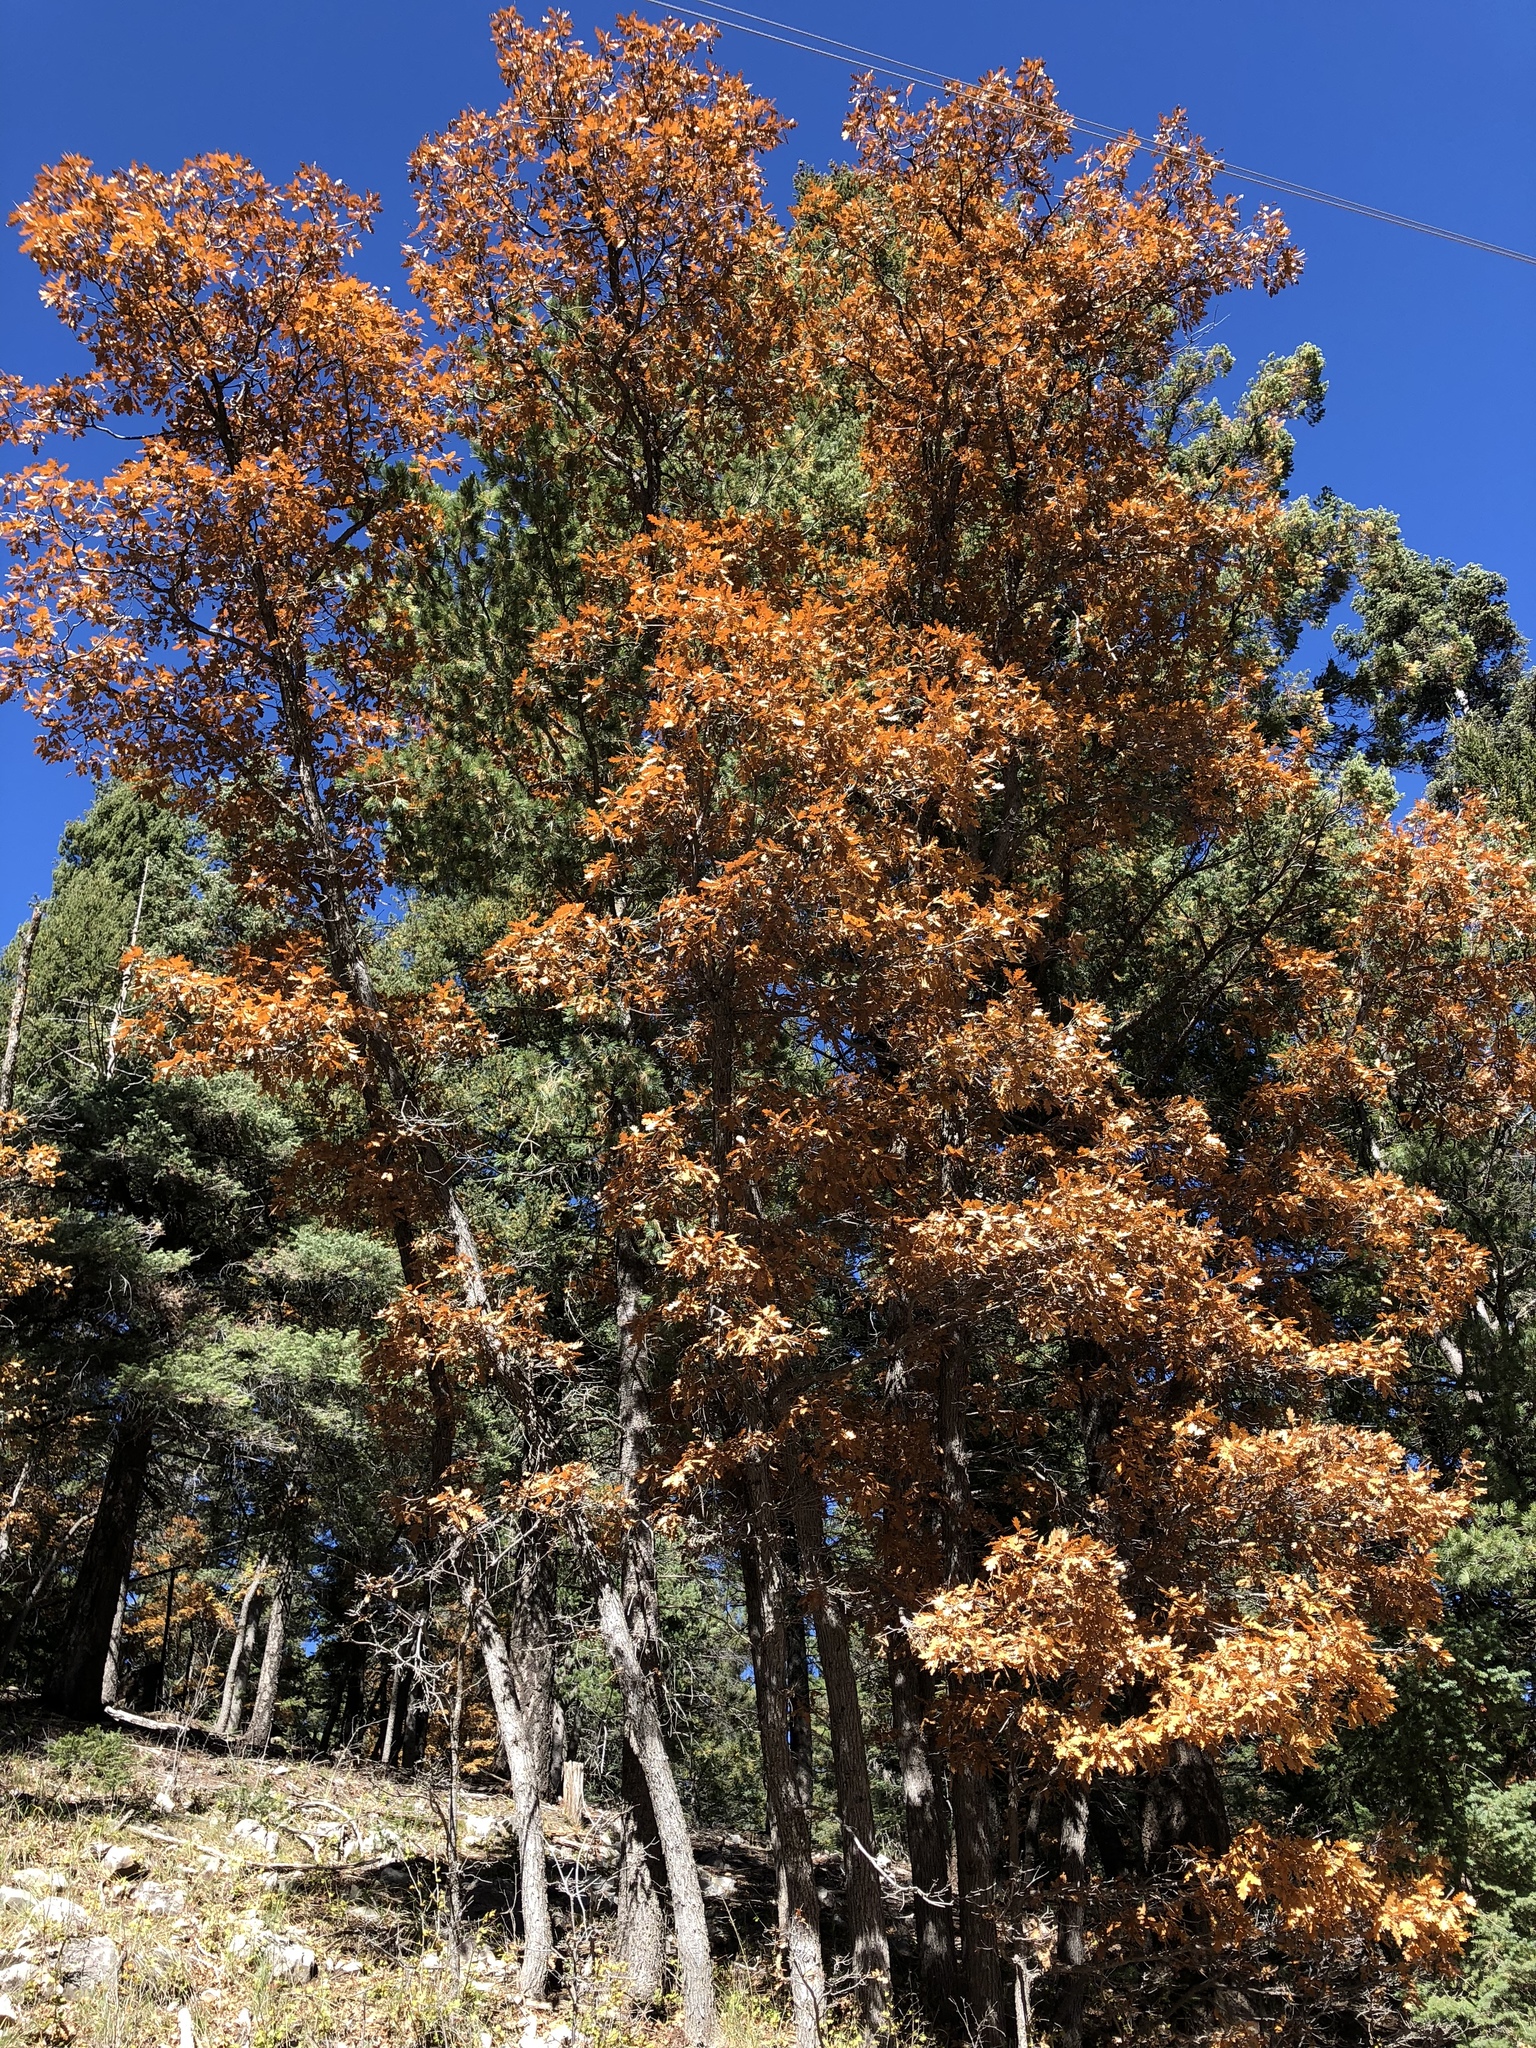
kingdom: Plantae
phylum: Tracheophyta
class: Magnoliopsida
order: Fagales
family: Fagaceae
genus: Quercus
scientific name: Quercus gambelii
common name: Gambel oak
